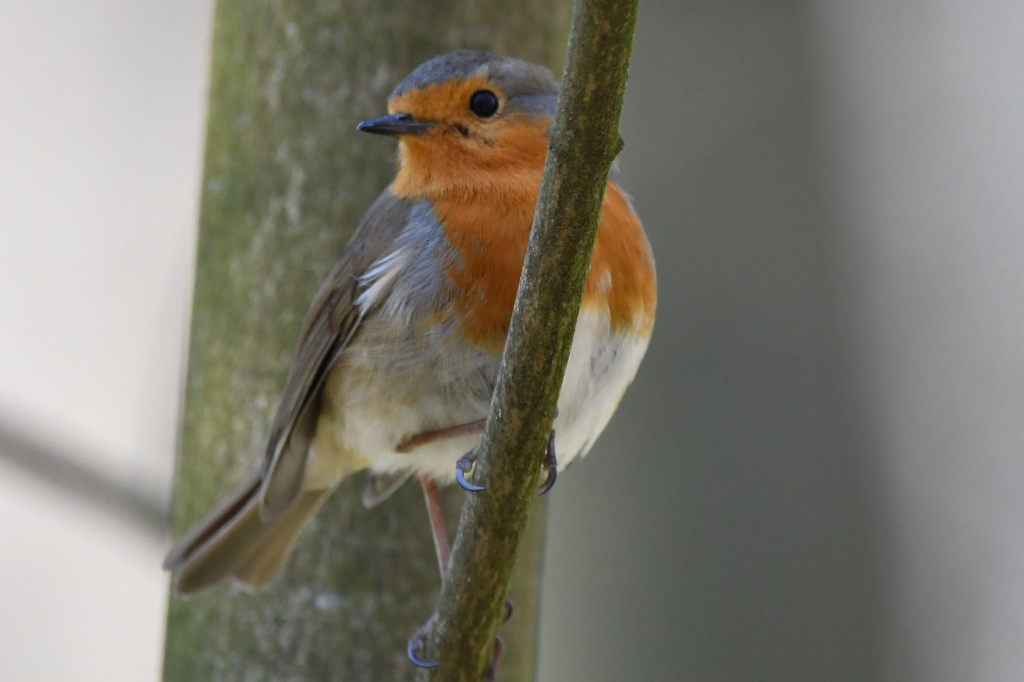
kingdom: Animalia
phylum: Chordata
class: Aves
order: Passeriformes
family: Muscicapidae
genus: Erithacus
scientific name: Erithacus rubecula
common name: European robin
